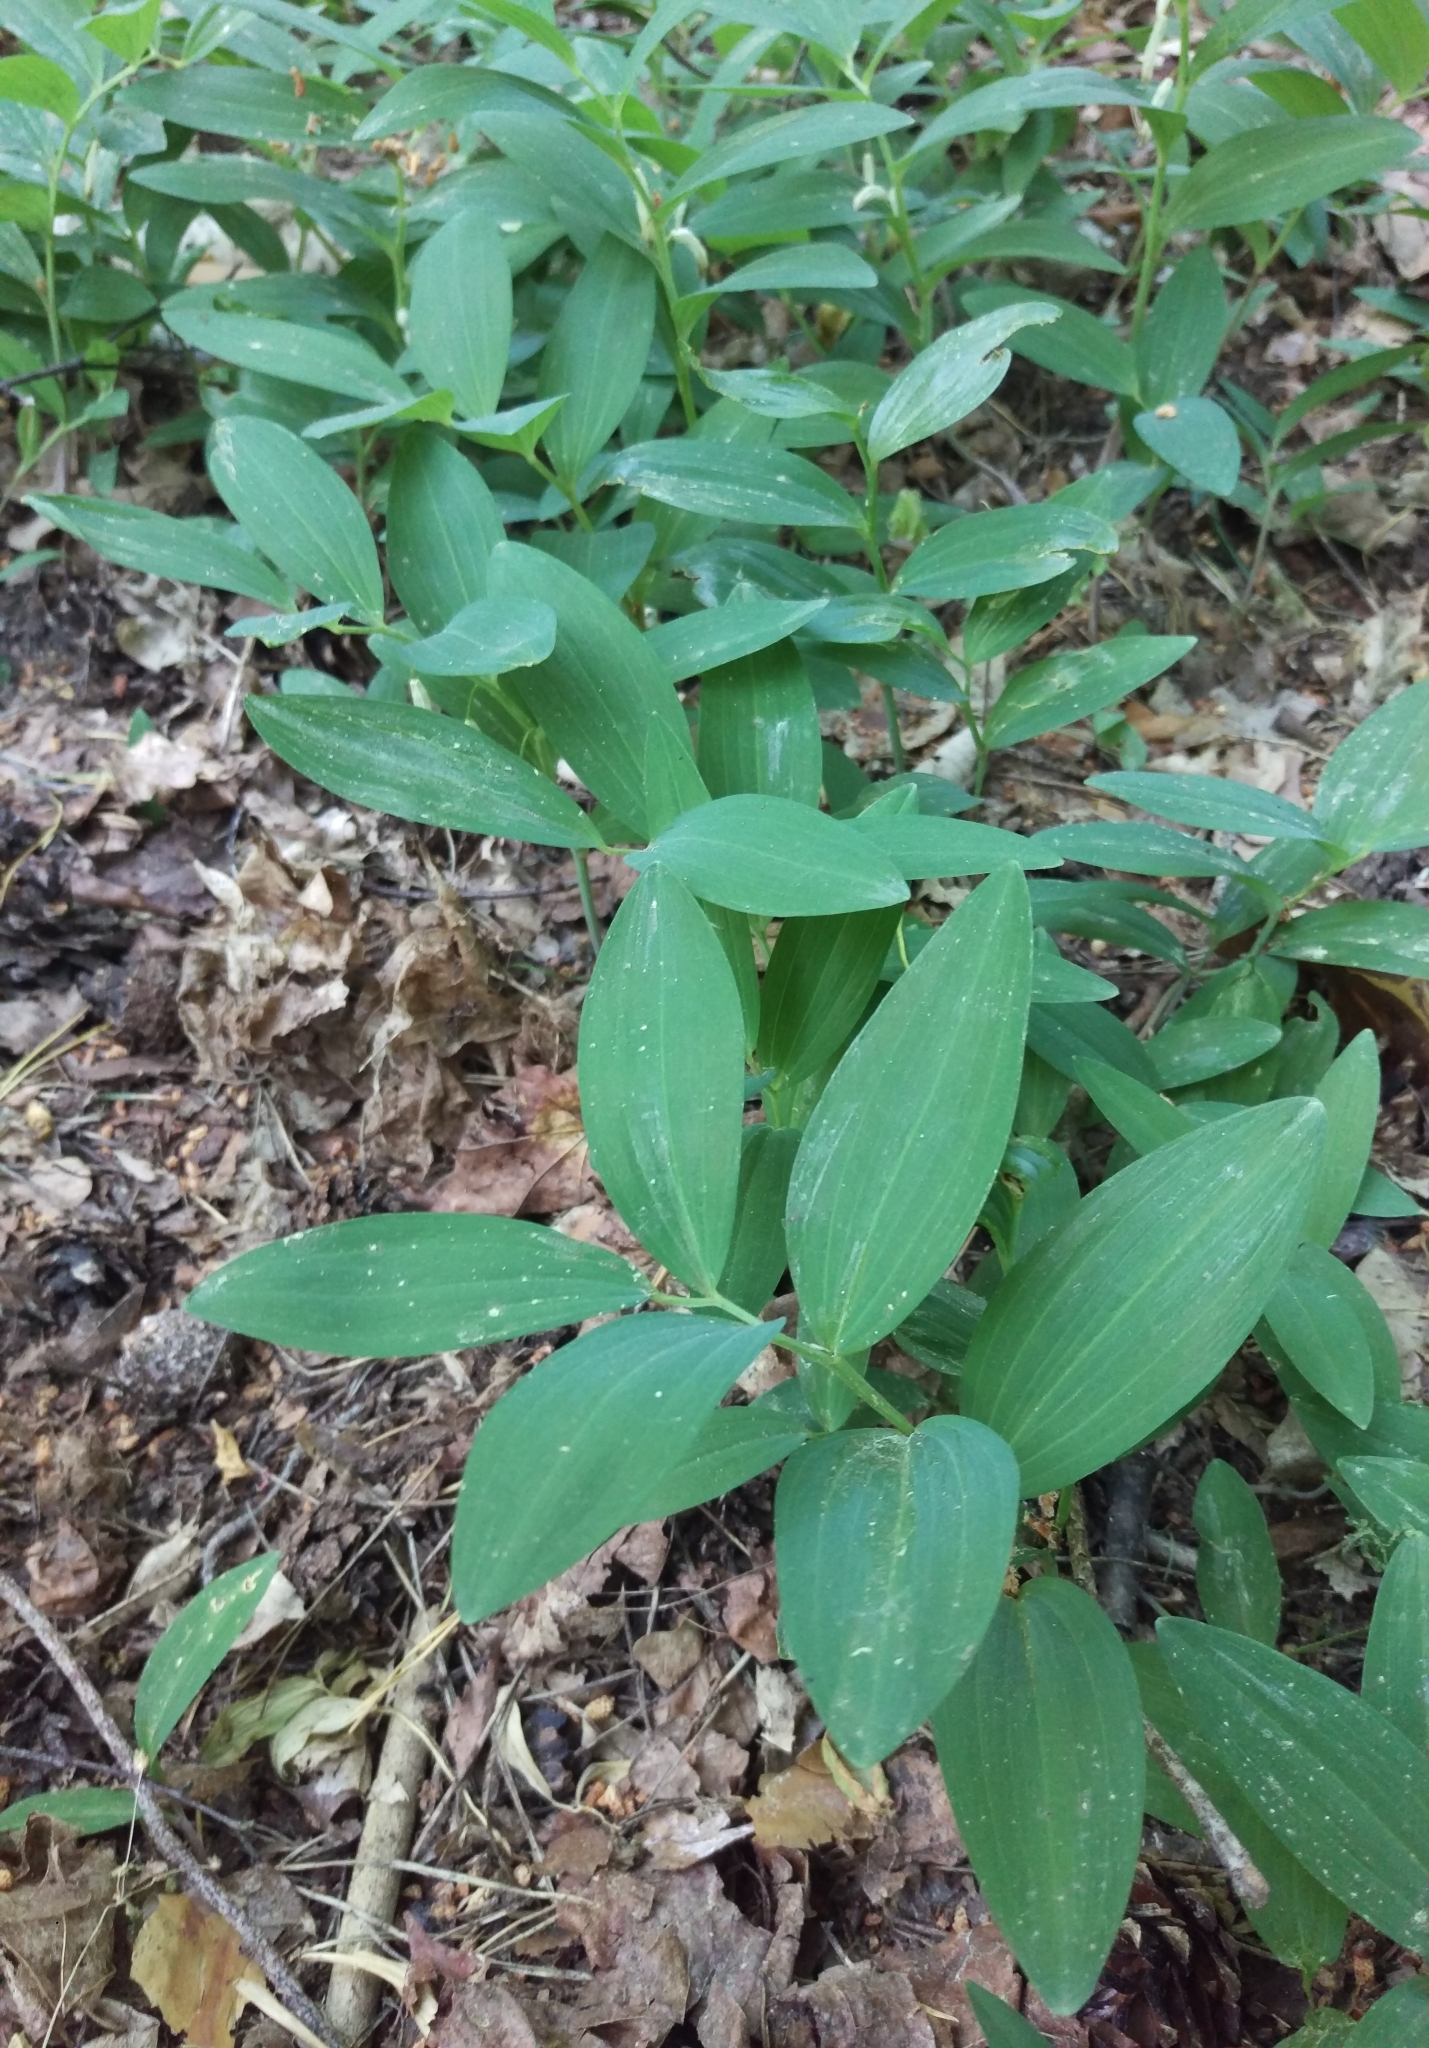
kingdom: Plantae
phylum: Tracheophyta
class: Liliopsida
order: Asparagales
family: Asparagaceae
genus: Polygonatum
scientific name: Polygonatum odoratum
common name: Angular solomon's-seal
